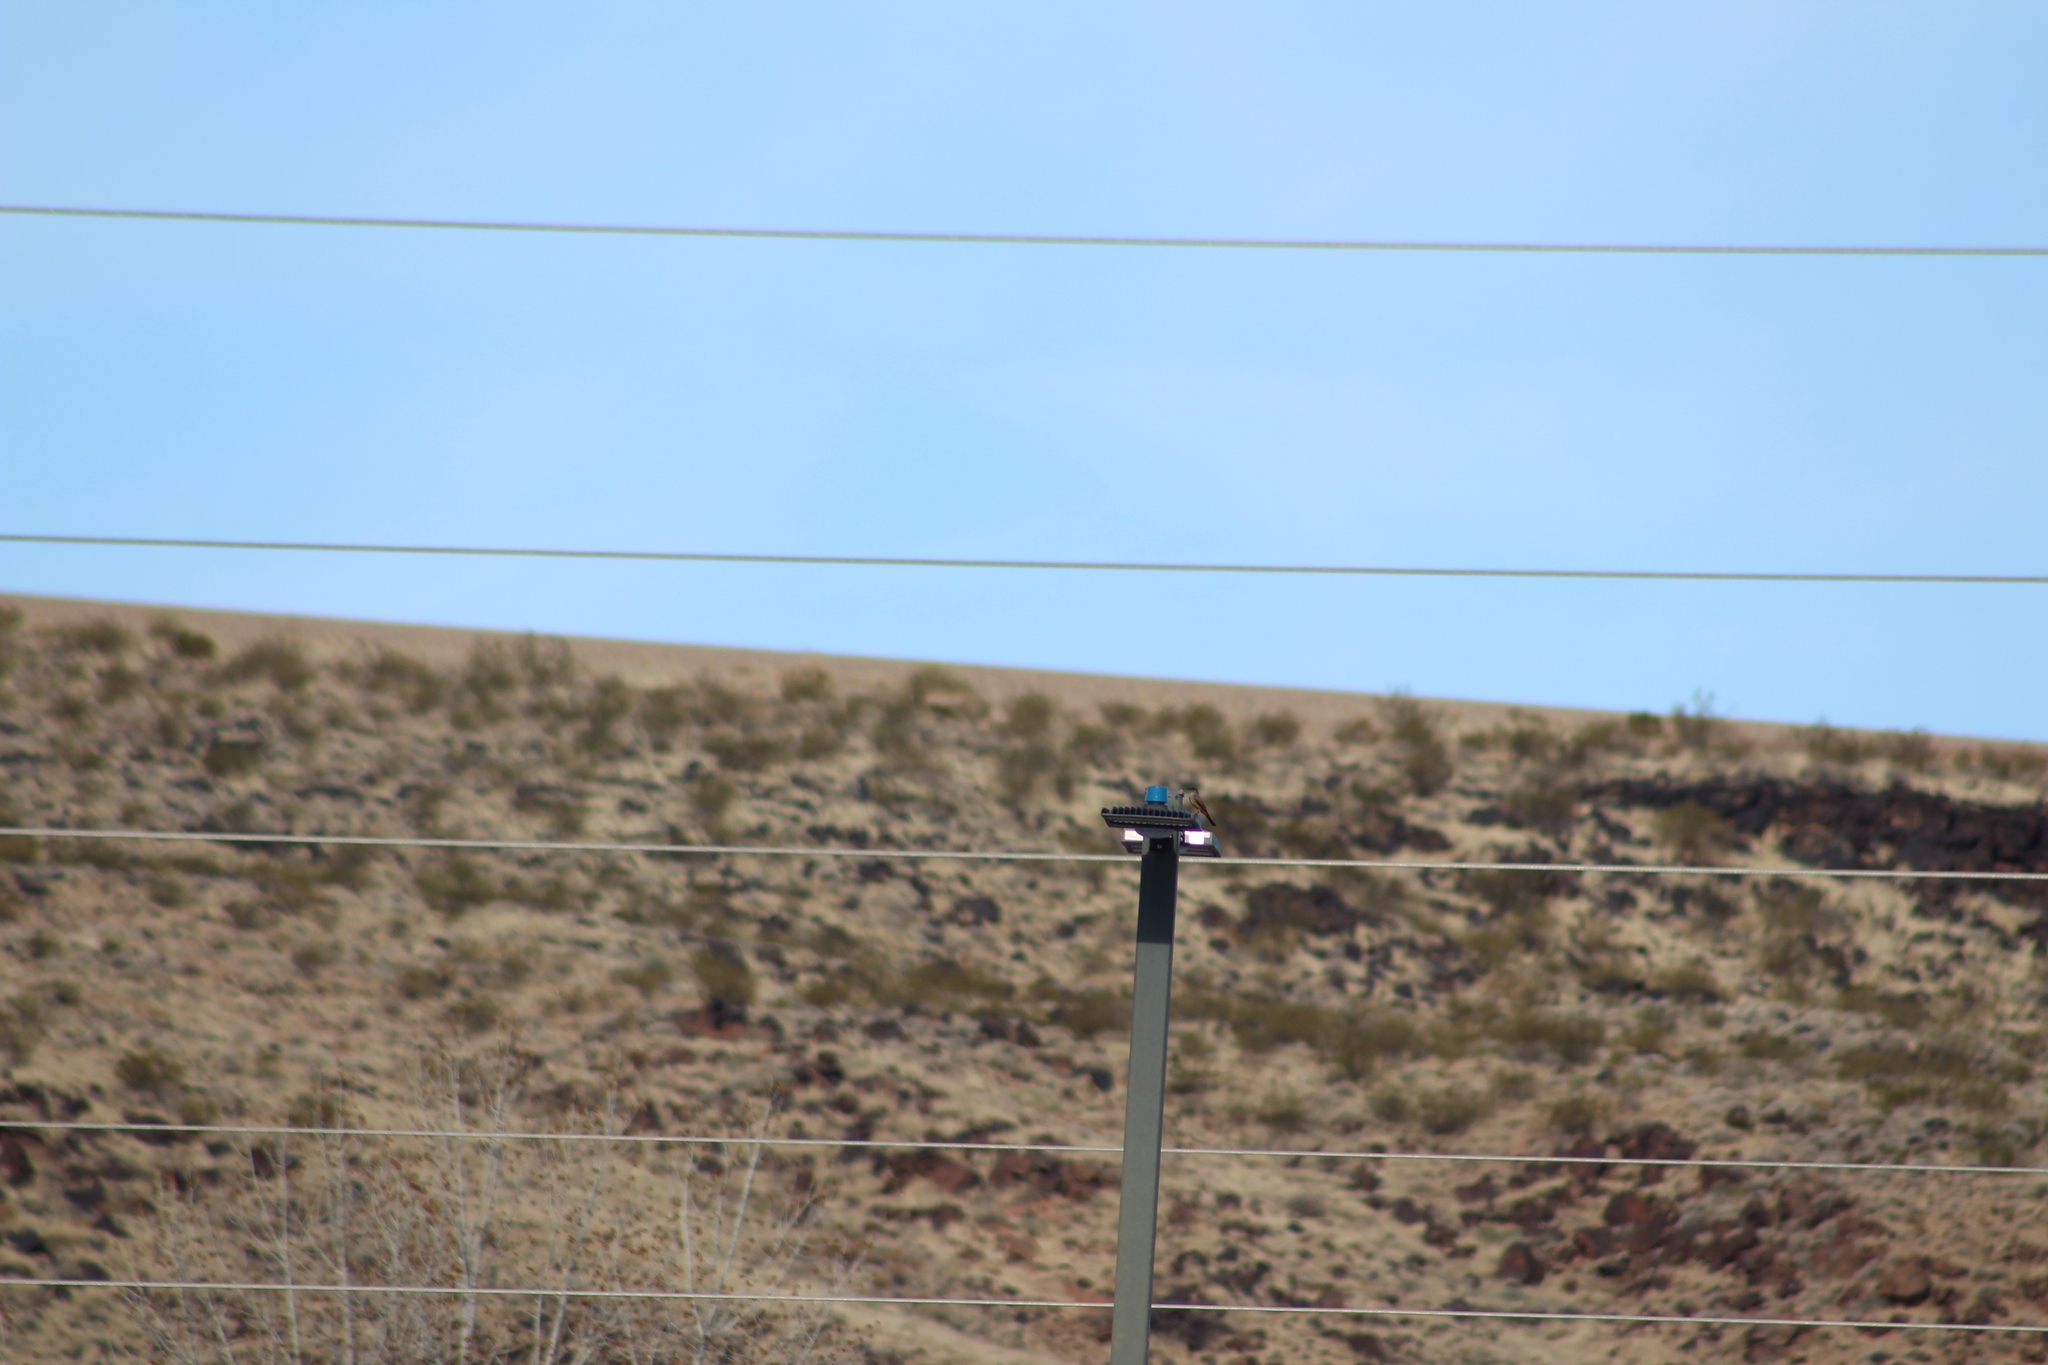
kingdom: Animalia
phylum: Chordata
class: Aves
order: Passeriformes
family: Tyrannidae
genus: Sayornis
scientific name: Sayornis saya
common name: Say's phoebe
